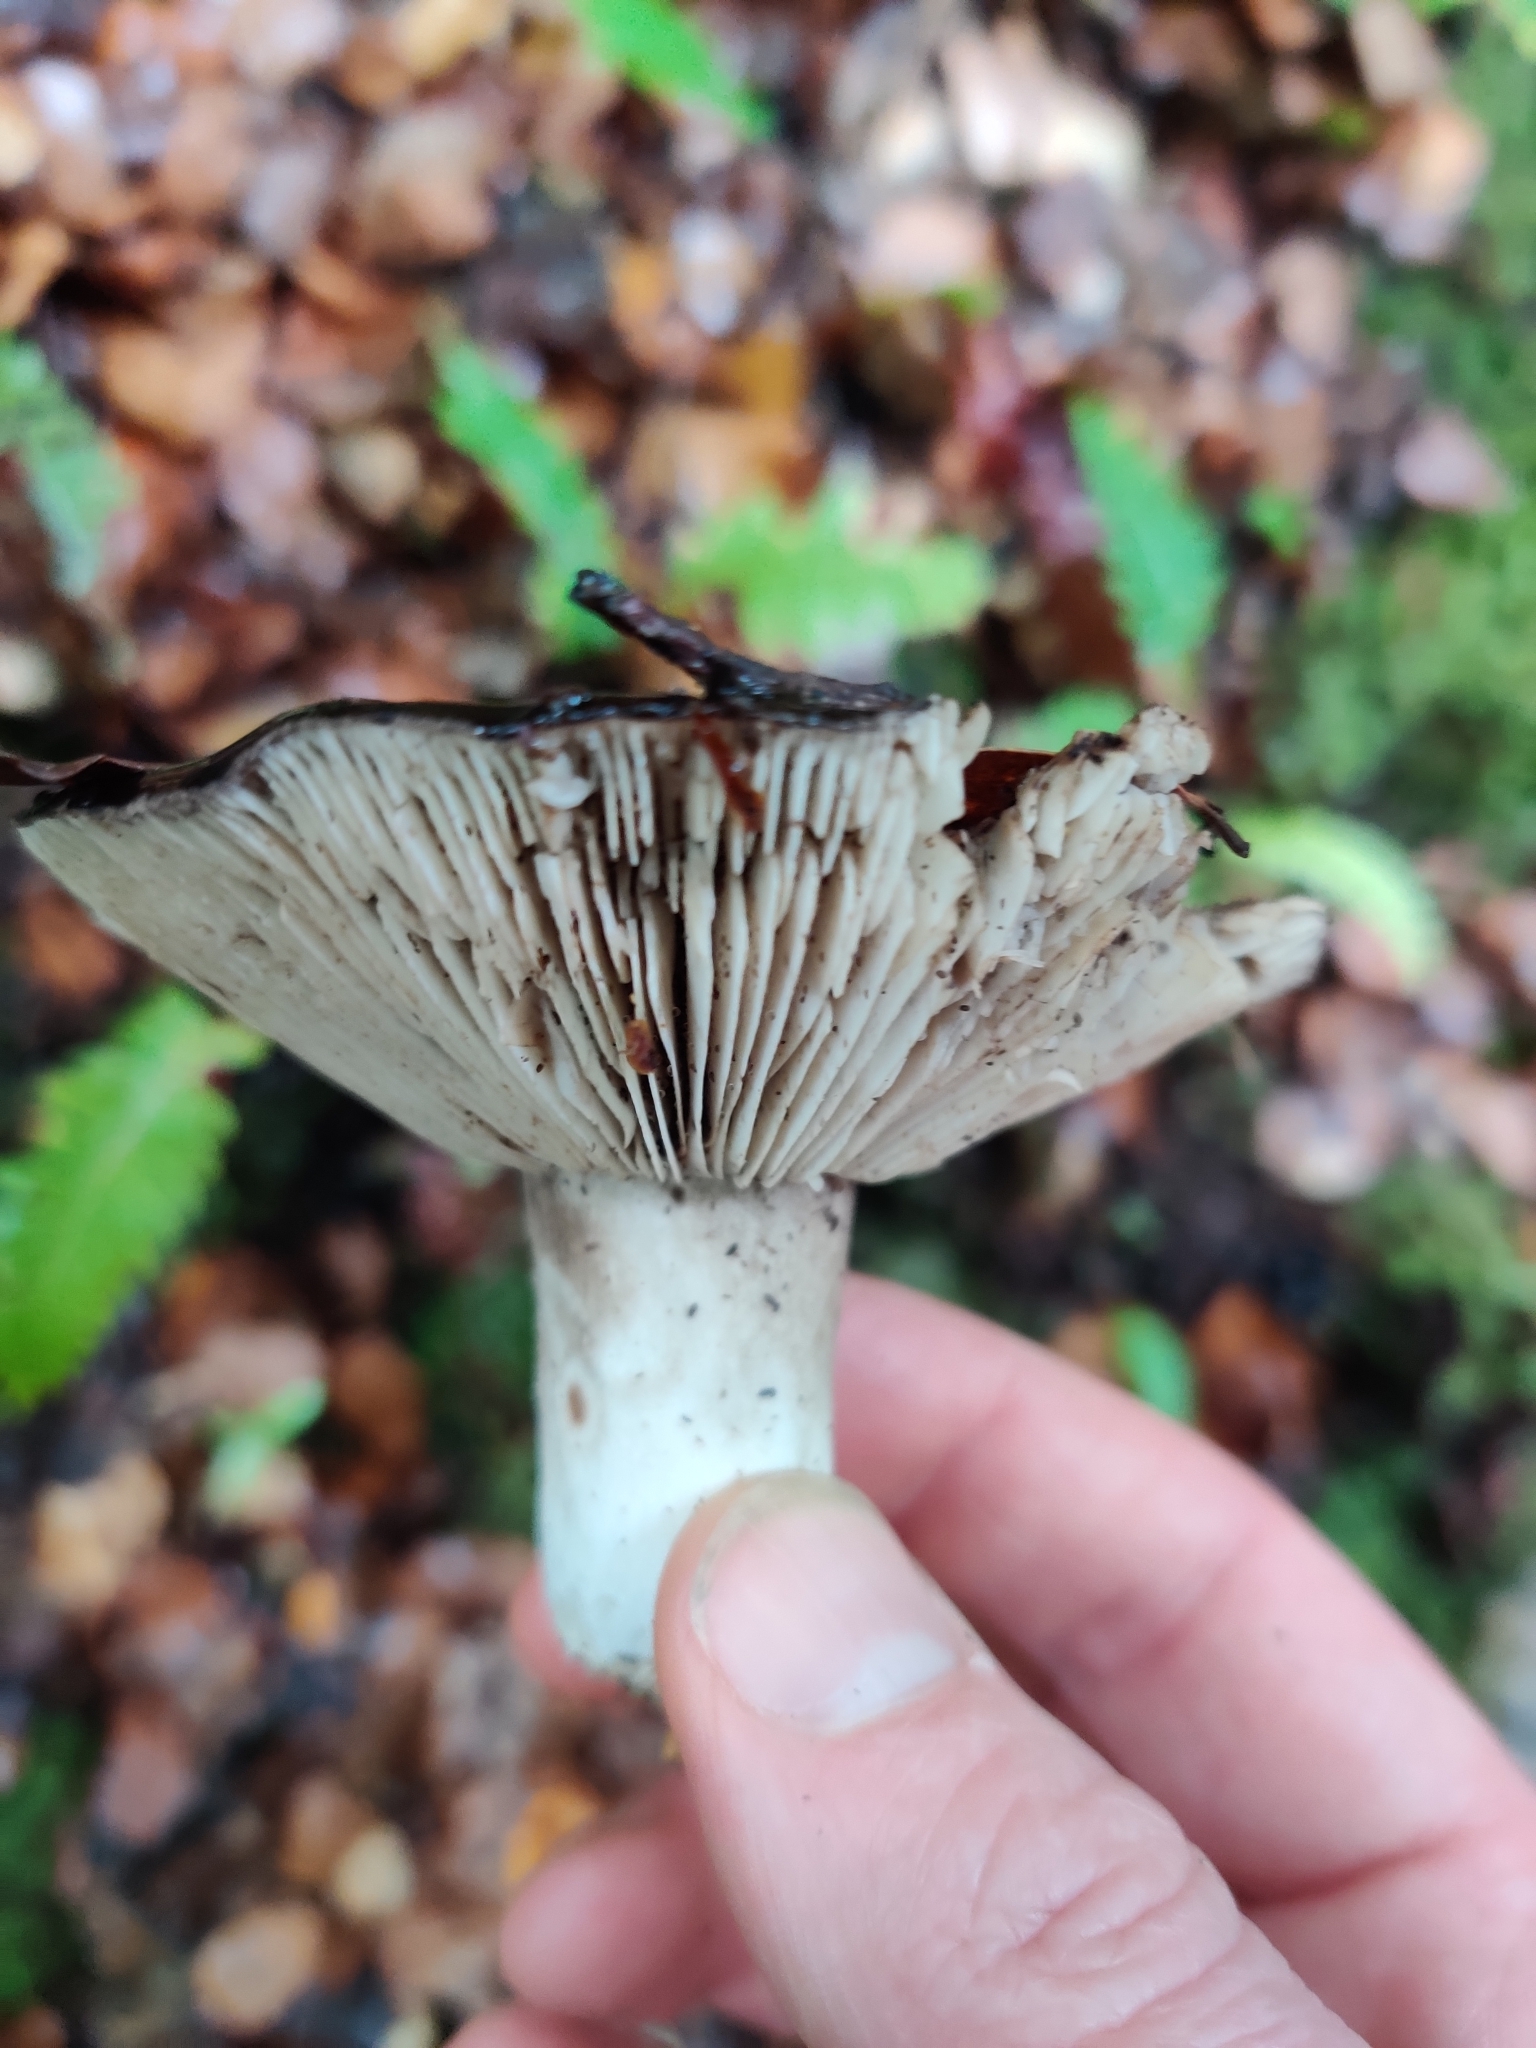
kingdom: Fungi
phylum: Basidiomycota
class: Agaricomycetes
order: Russulales
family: Russulaceae
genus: Russula
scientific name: Russula inquinata
